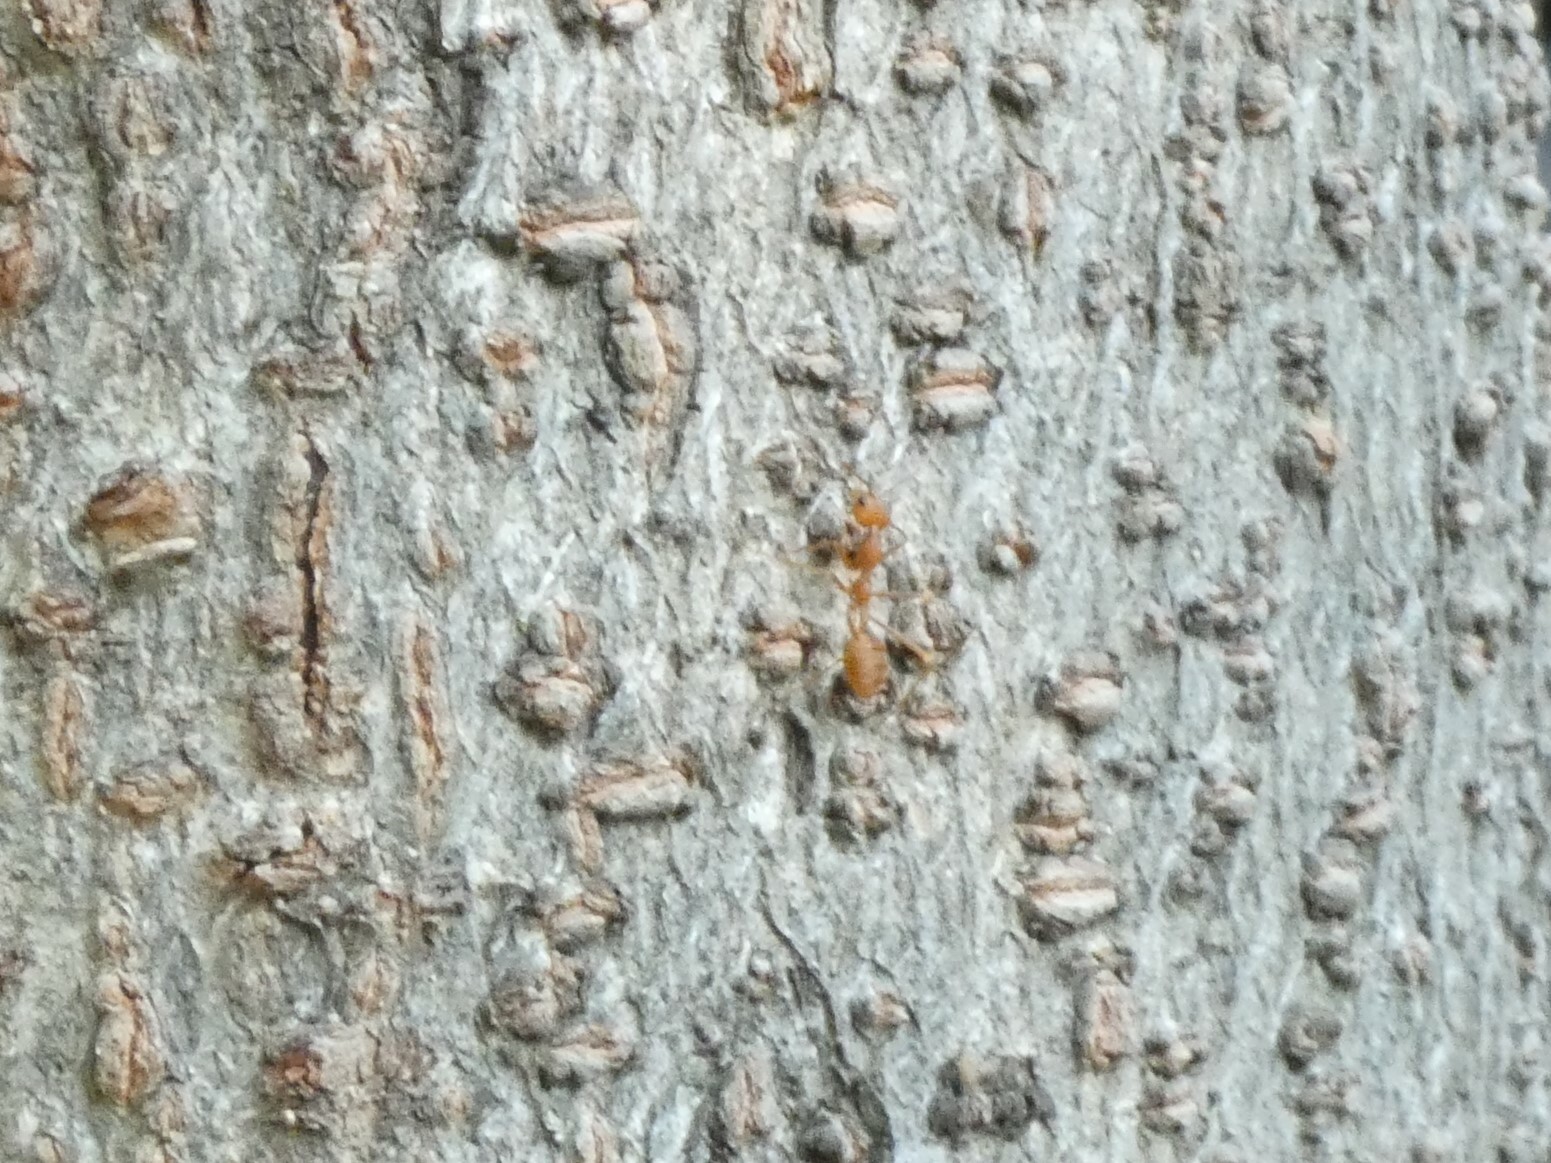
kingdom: Animalia
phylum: Arthropoda
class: Insecta
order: Hymenoptera
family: Formicidae
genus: Oecophylla
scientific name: Oecophylla smaragdina
